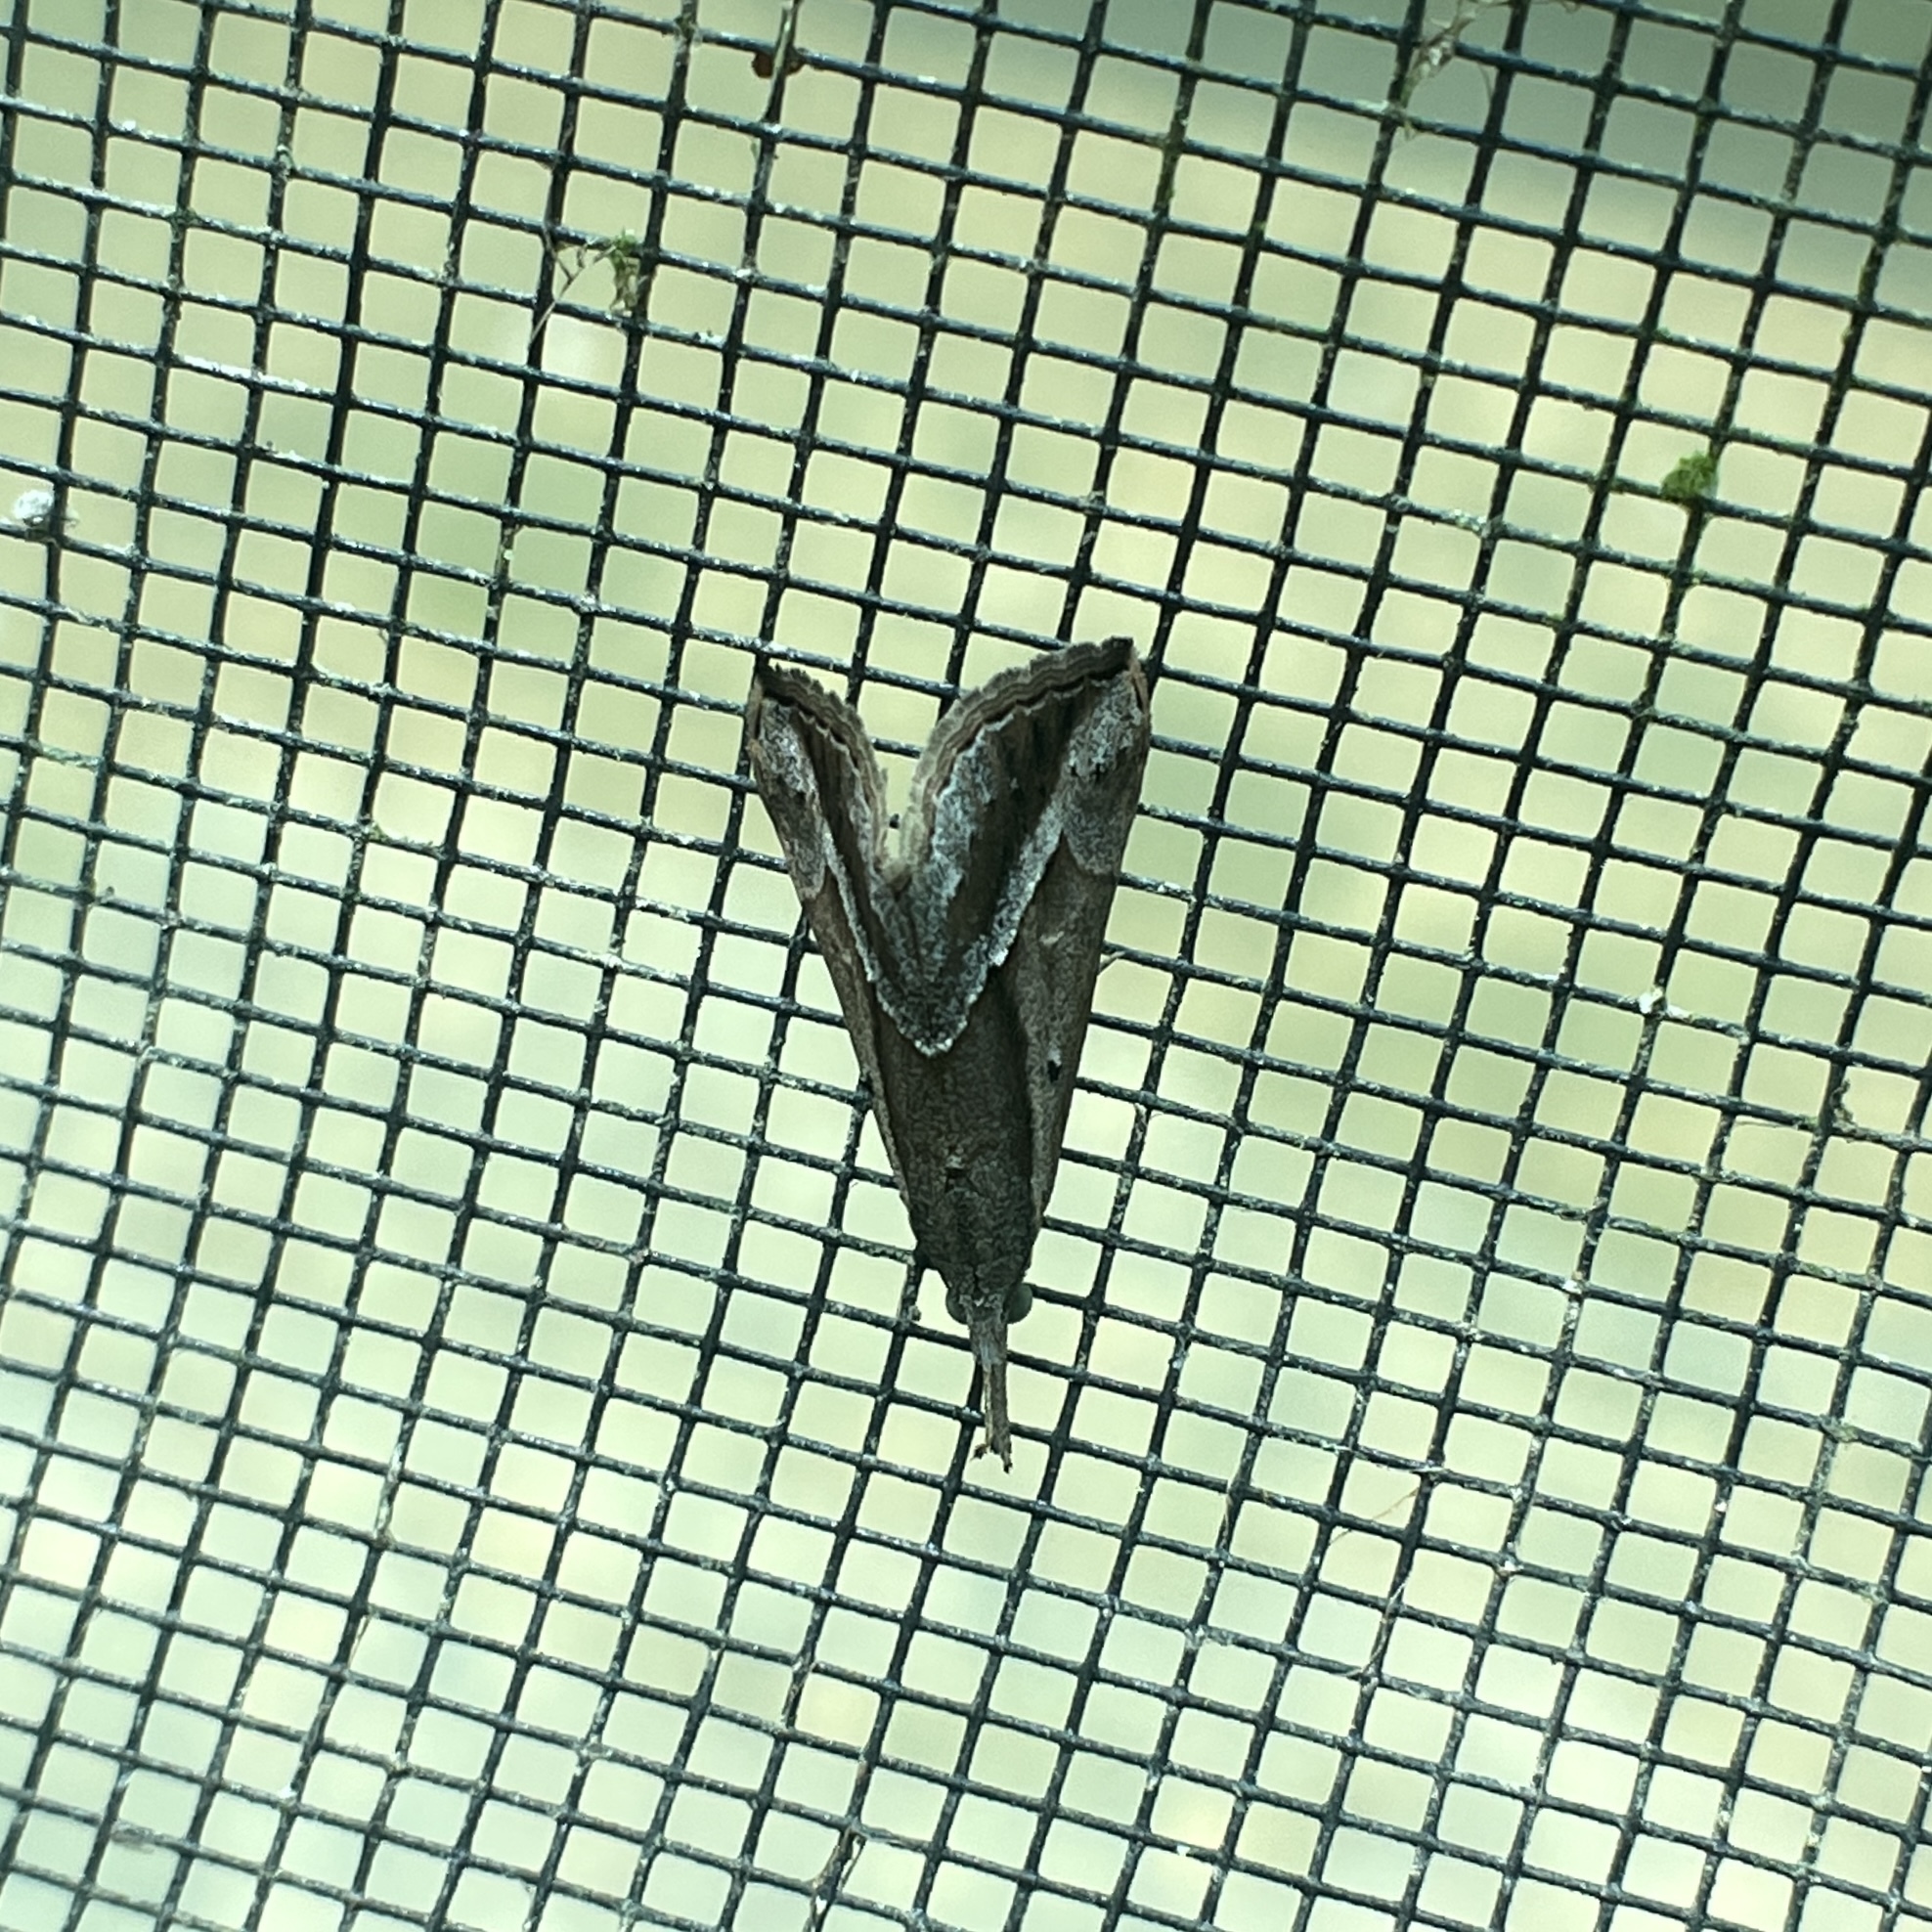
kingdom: Animalia
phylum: Arthropoda
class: Insecta
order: Lepidoptera
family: Erebidae
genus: Hypena
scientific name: Hypena fufialis
